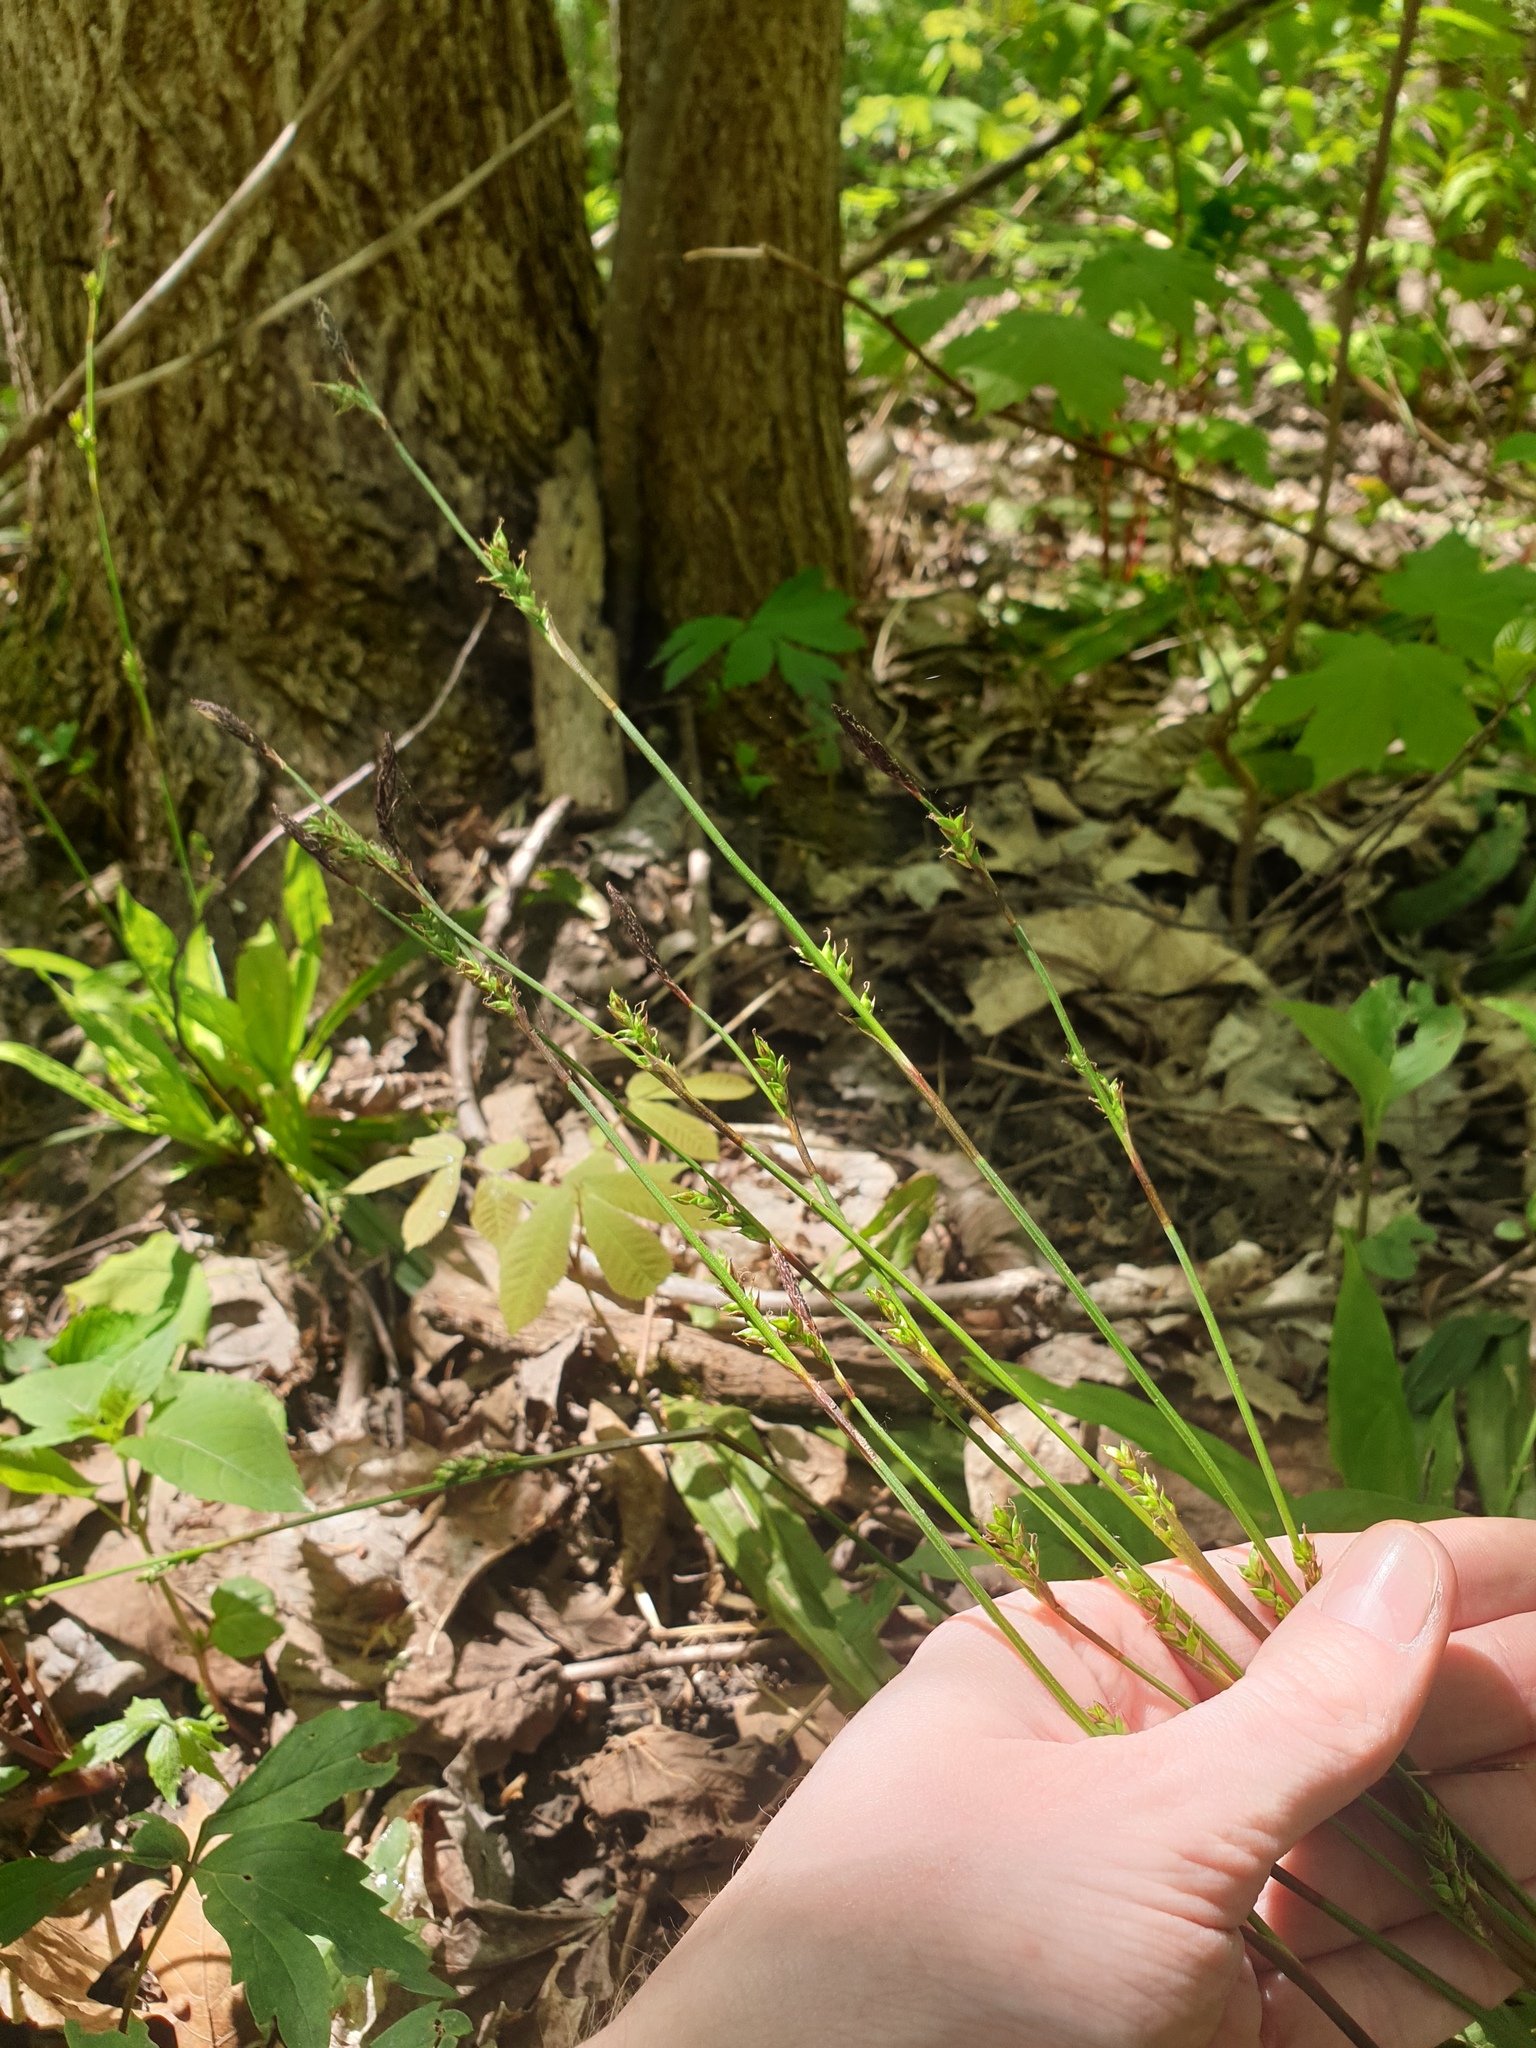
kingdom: Plantae
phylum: Tracheophyta
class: Liliopsida
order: Poales
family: Cyperaceae
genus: Carex
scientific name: Carex plantaginea
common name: Plantain-leaved sedge
